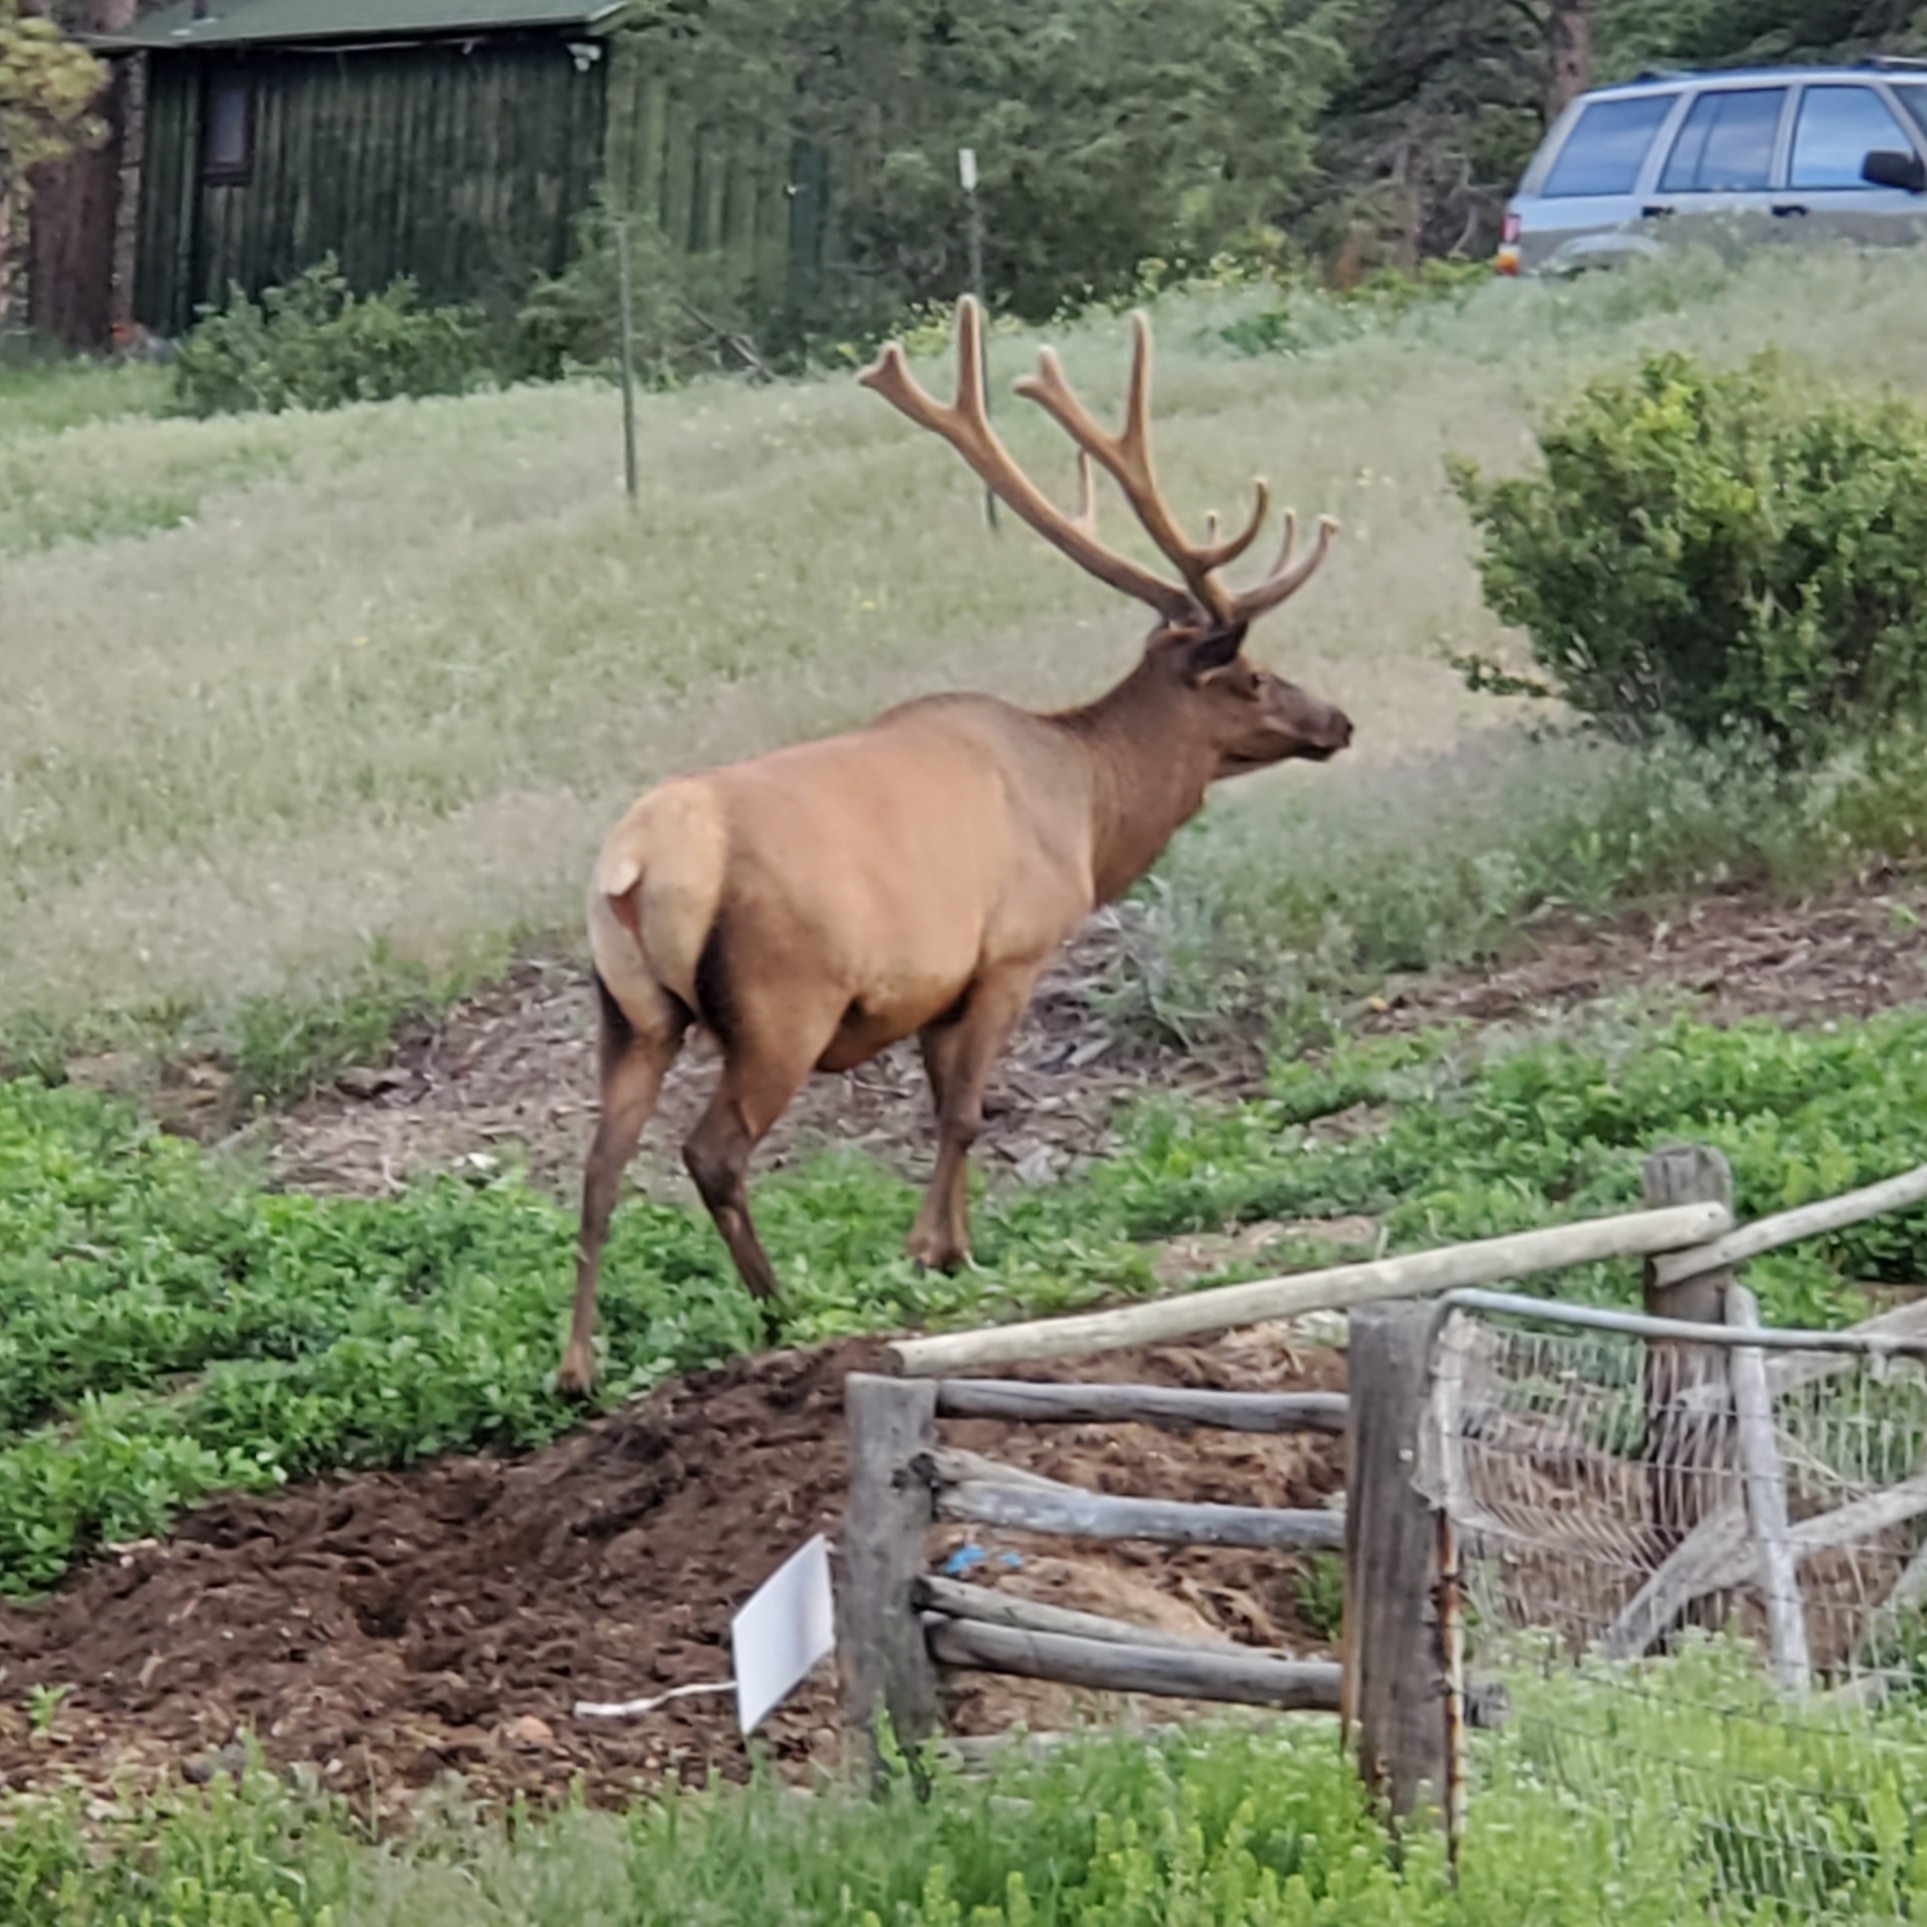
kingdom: Animalia
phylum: Chordata
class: Mammalia
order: Artiodactyla
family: Cervidae
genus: Cervus
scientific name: Cervus elaphus
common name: Red deer
